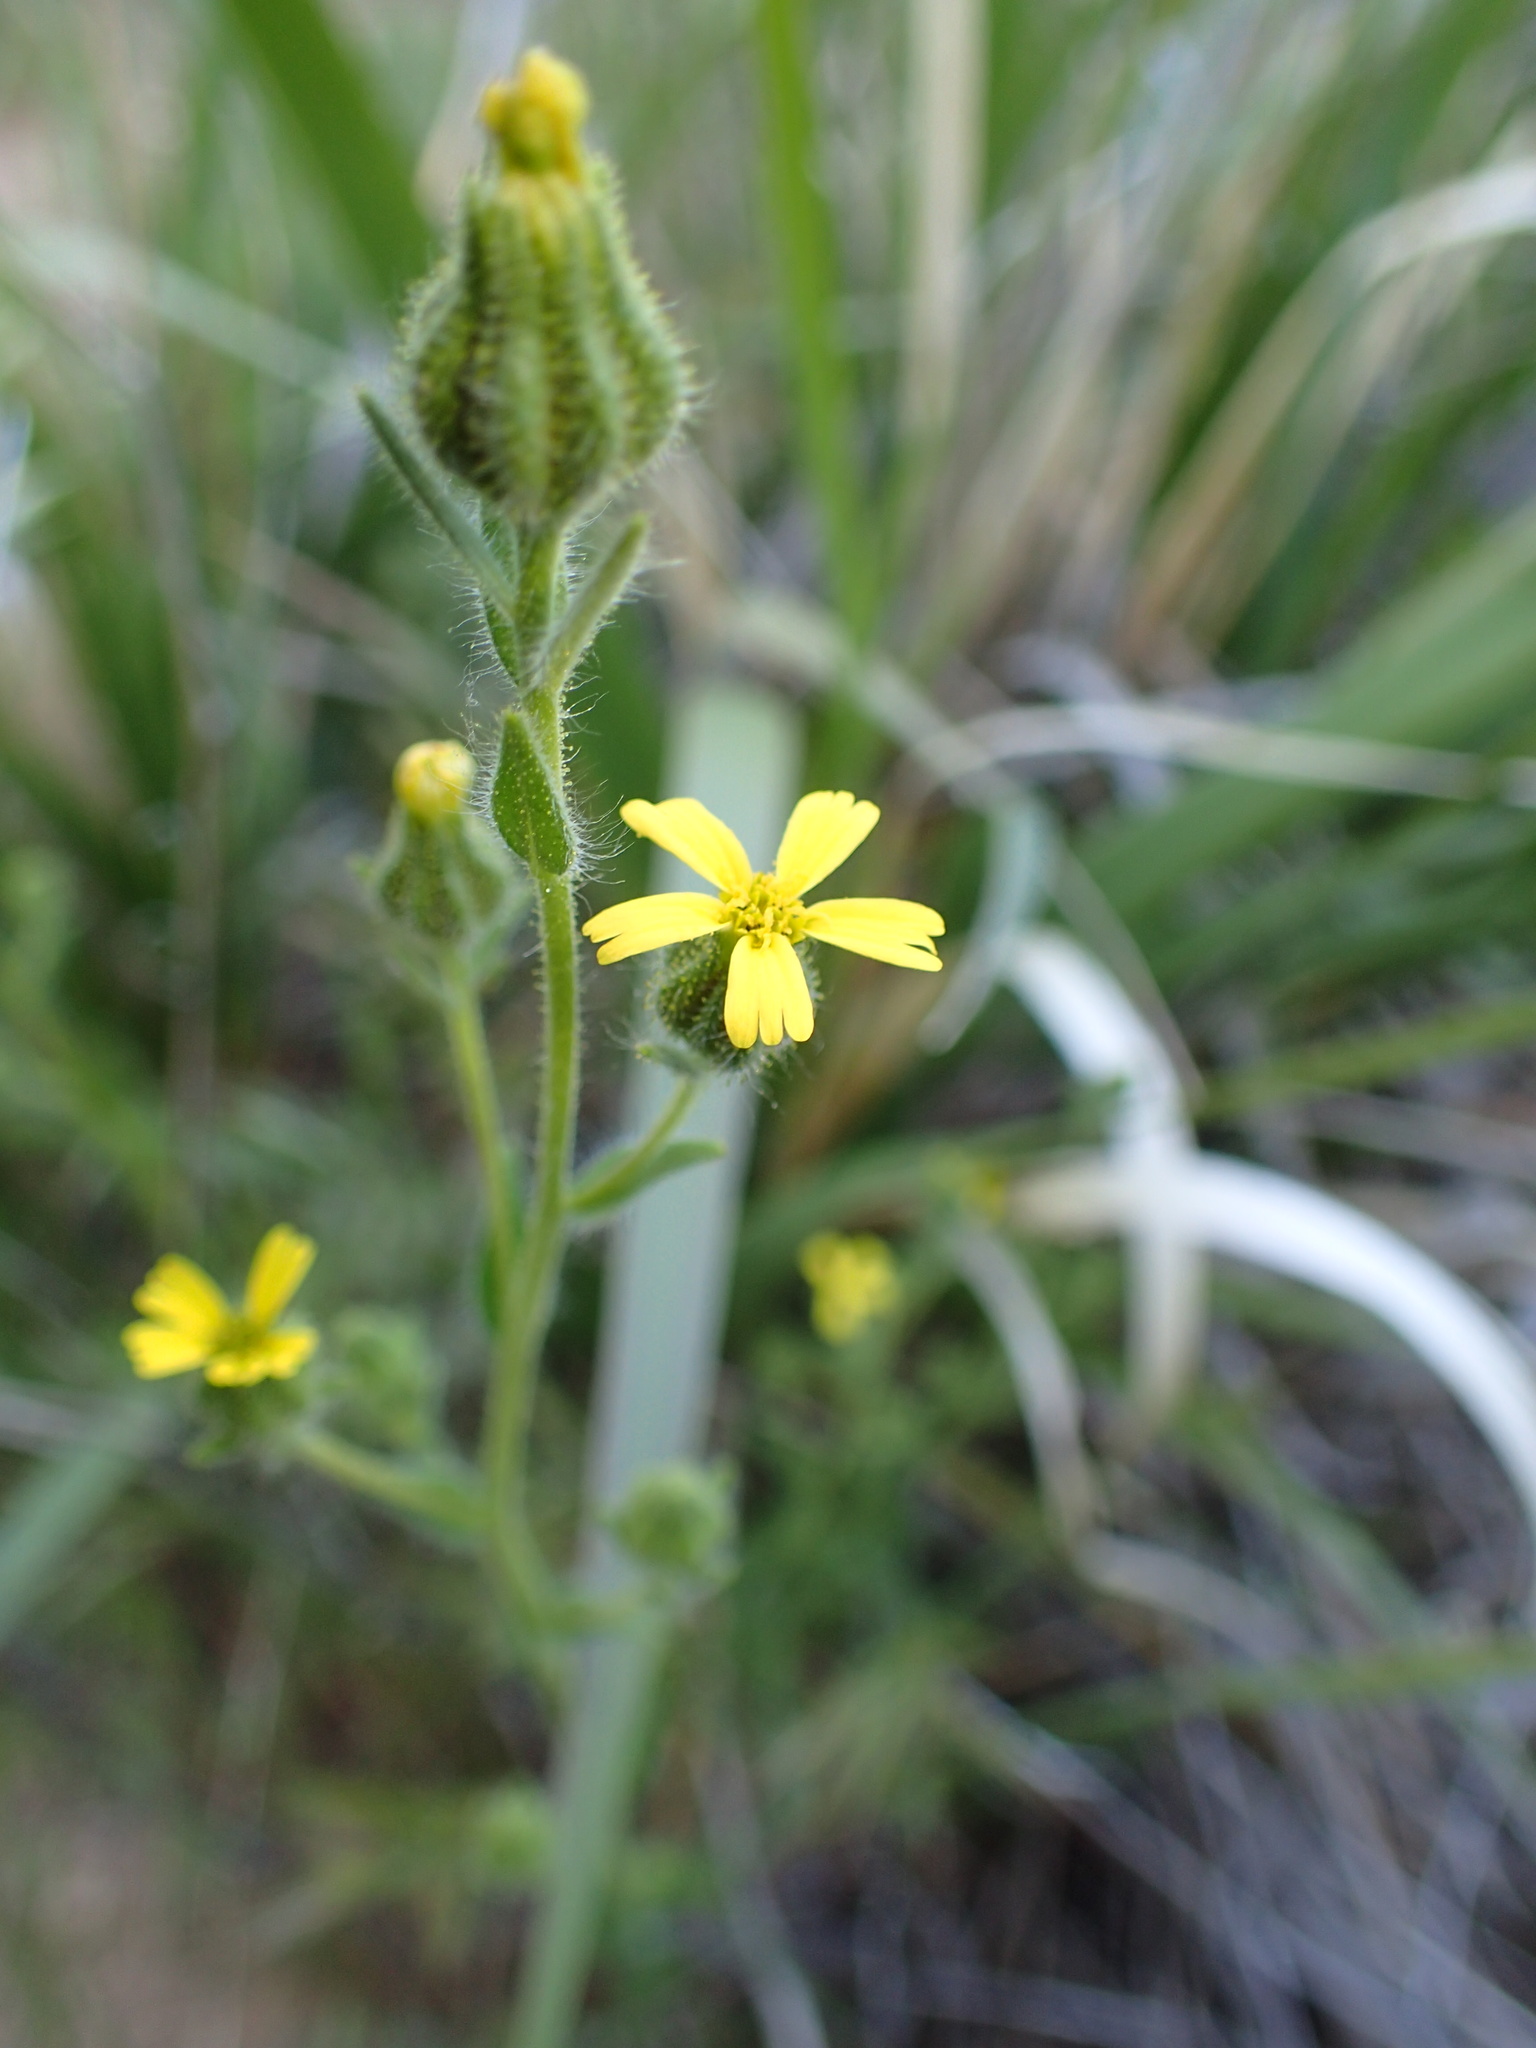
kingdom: Plantae
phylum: Tracheophyta
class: Magnoliopsida
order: Asterales
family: Asteraceae
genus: Madia
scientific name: Madia gracilis
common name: Grassy tarweed
